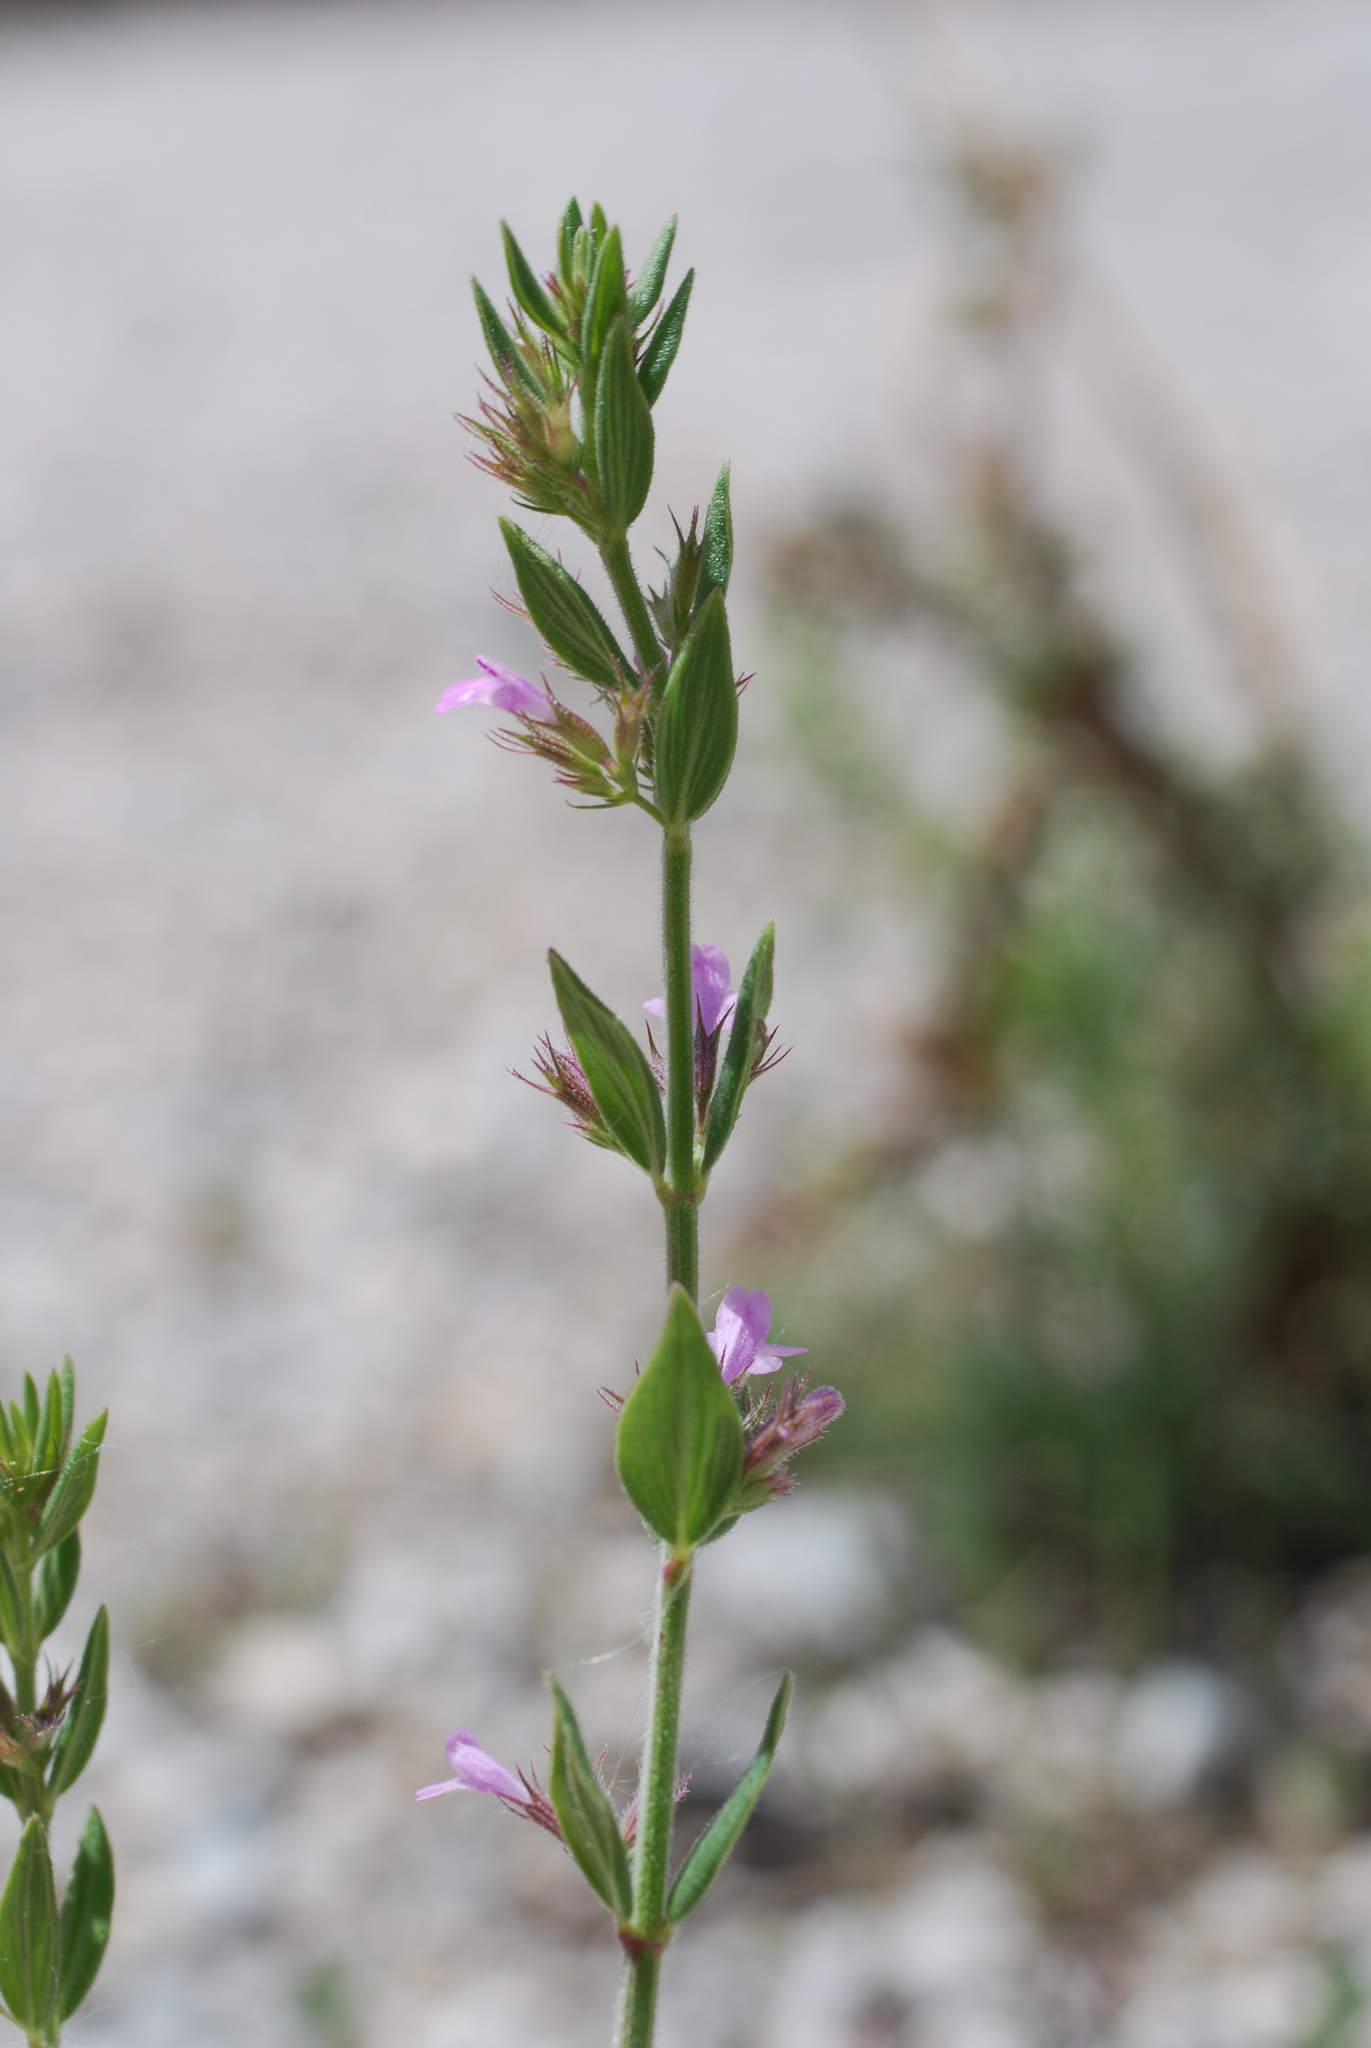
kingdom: Plantae
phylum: Tracheophyta
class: Magnoliopsida
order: Lamiales
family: Lamiaceae
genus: Micromeria
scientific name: Micromeria graeca
